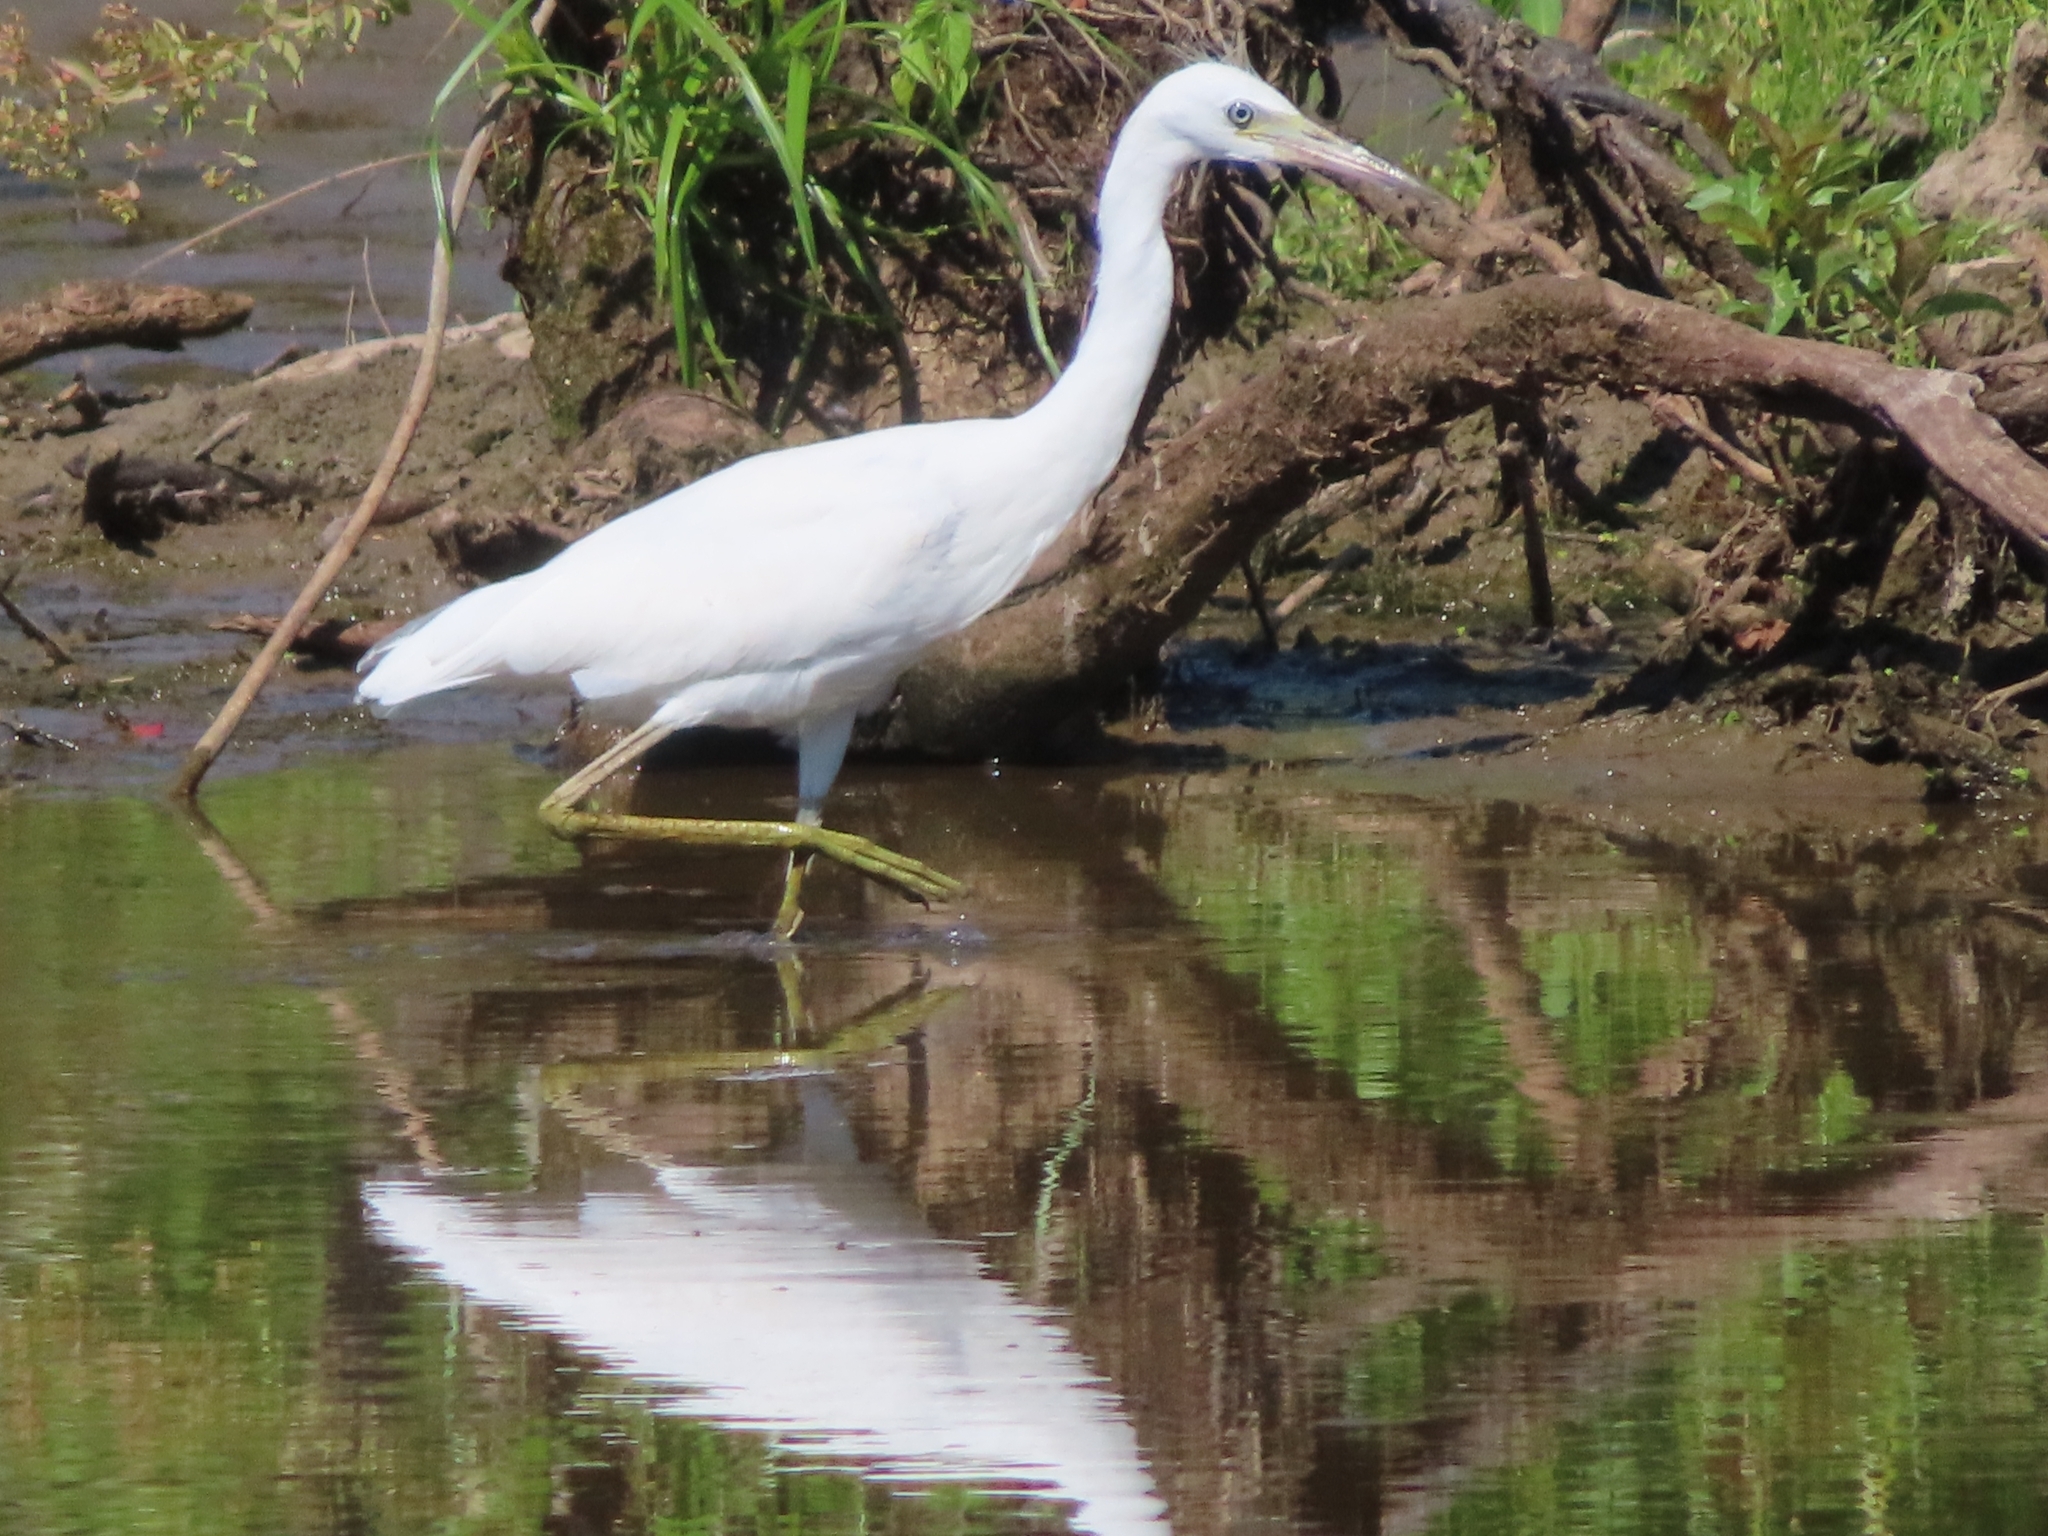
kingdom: Animalia
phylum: Chordata
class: Aves
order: Pelecaniformes
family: Ardeidae
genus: Egretta
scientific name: Egretta caerulea
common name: Little blue heron
